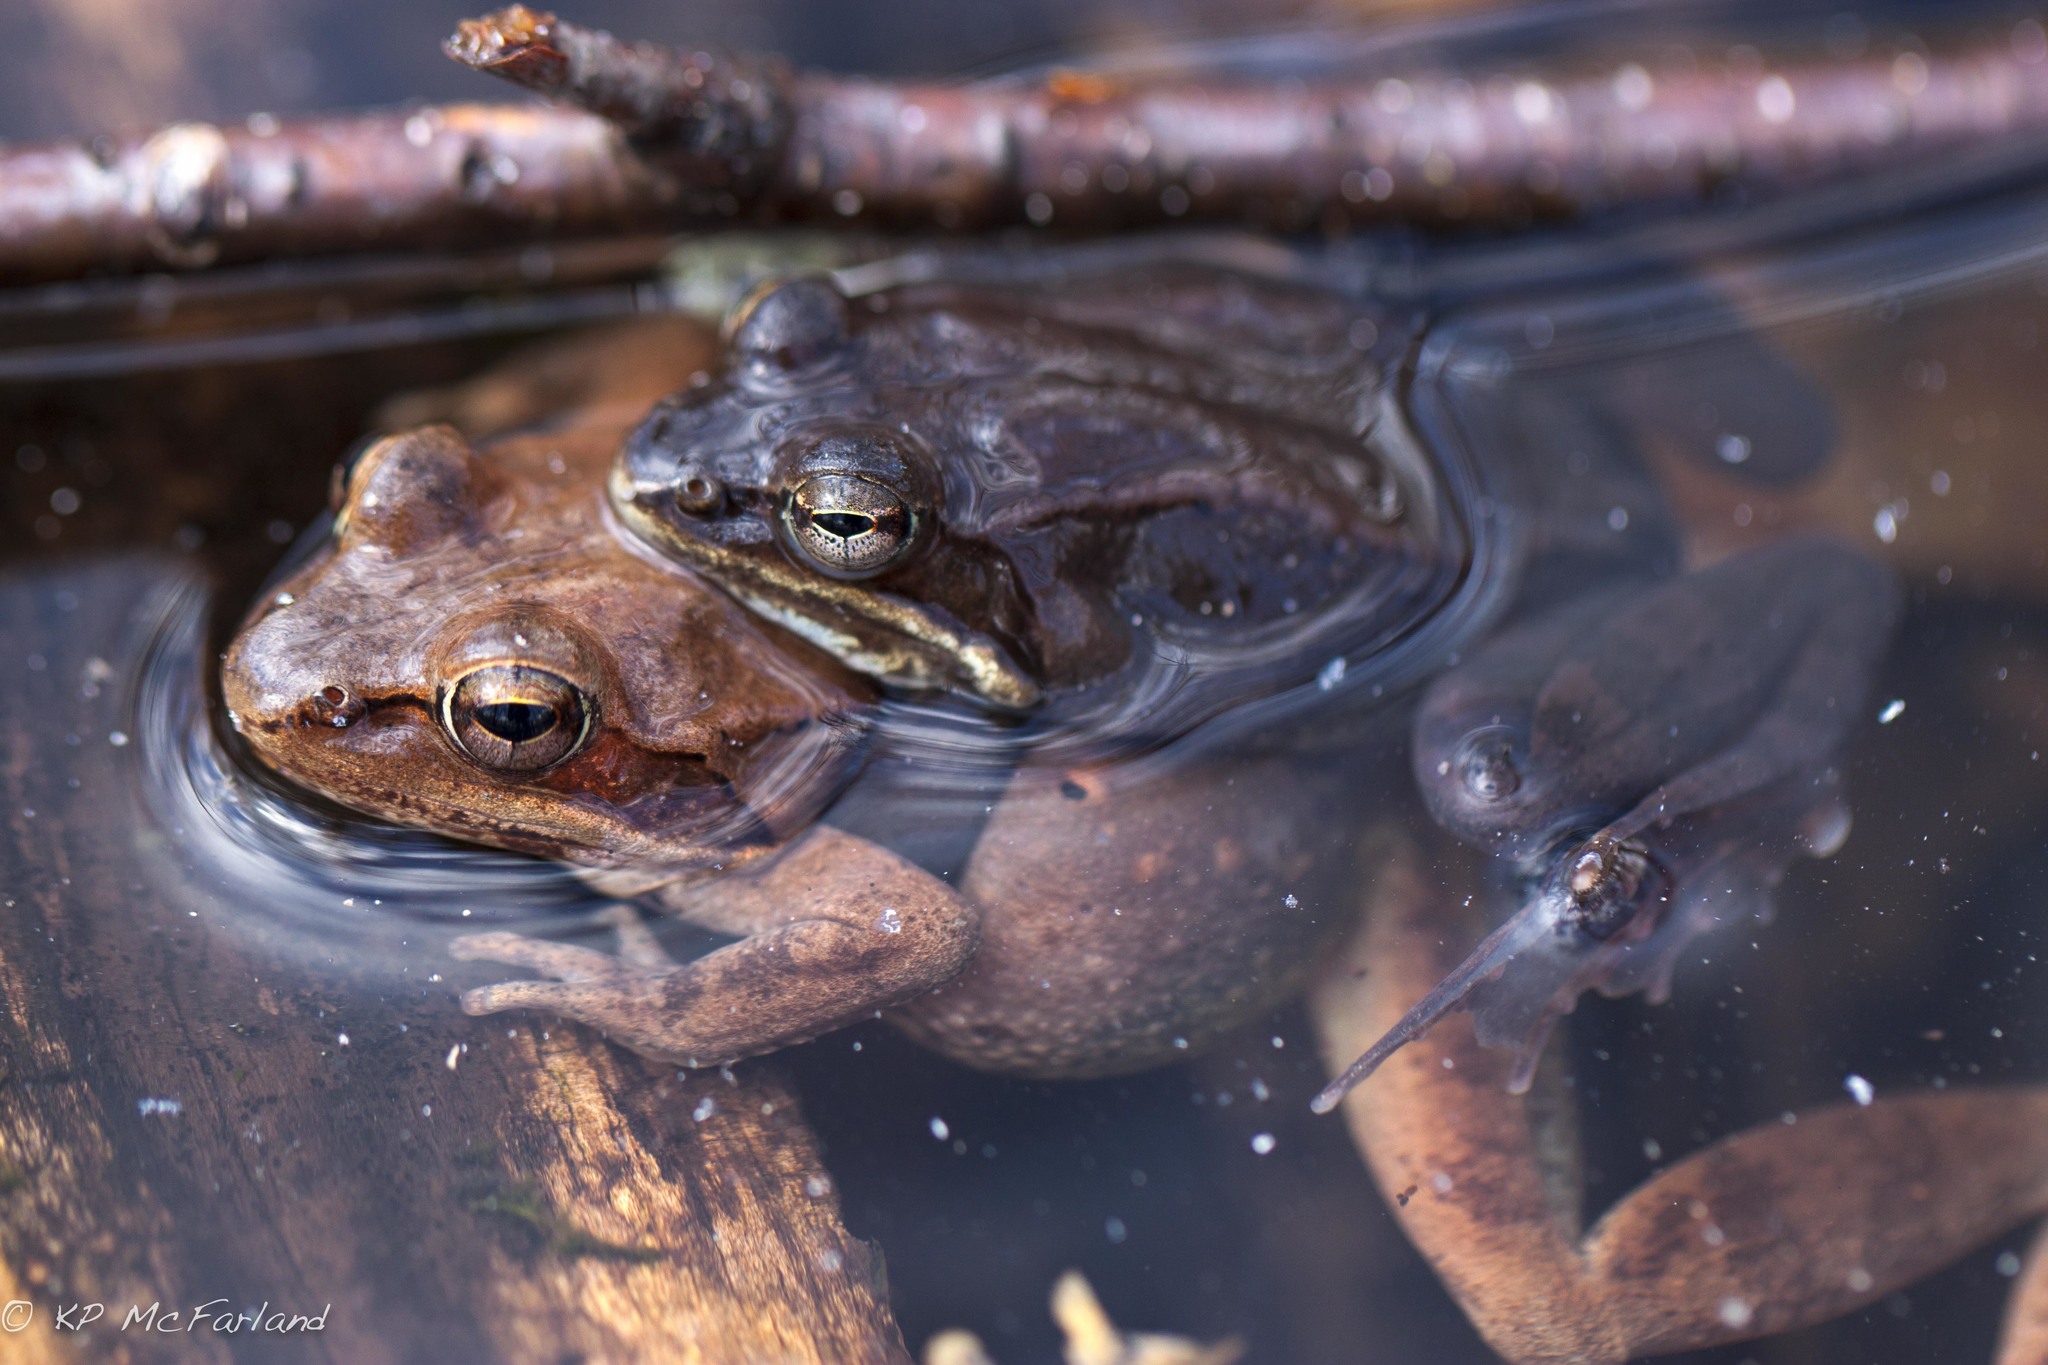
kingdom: Animalia
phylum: Chordata
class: Amphibia
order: Anura
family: Ranidae
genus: Lithobates
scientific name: Lithobates sylvaticus
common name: Wood frog
